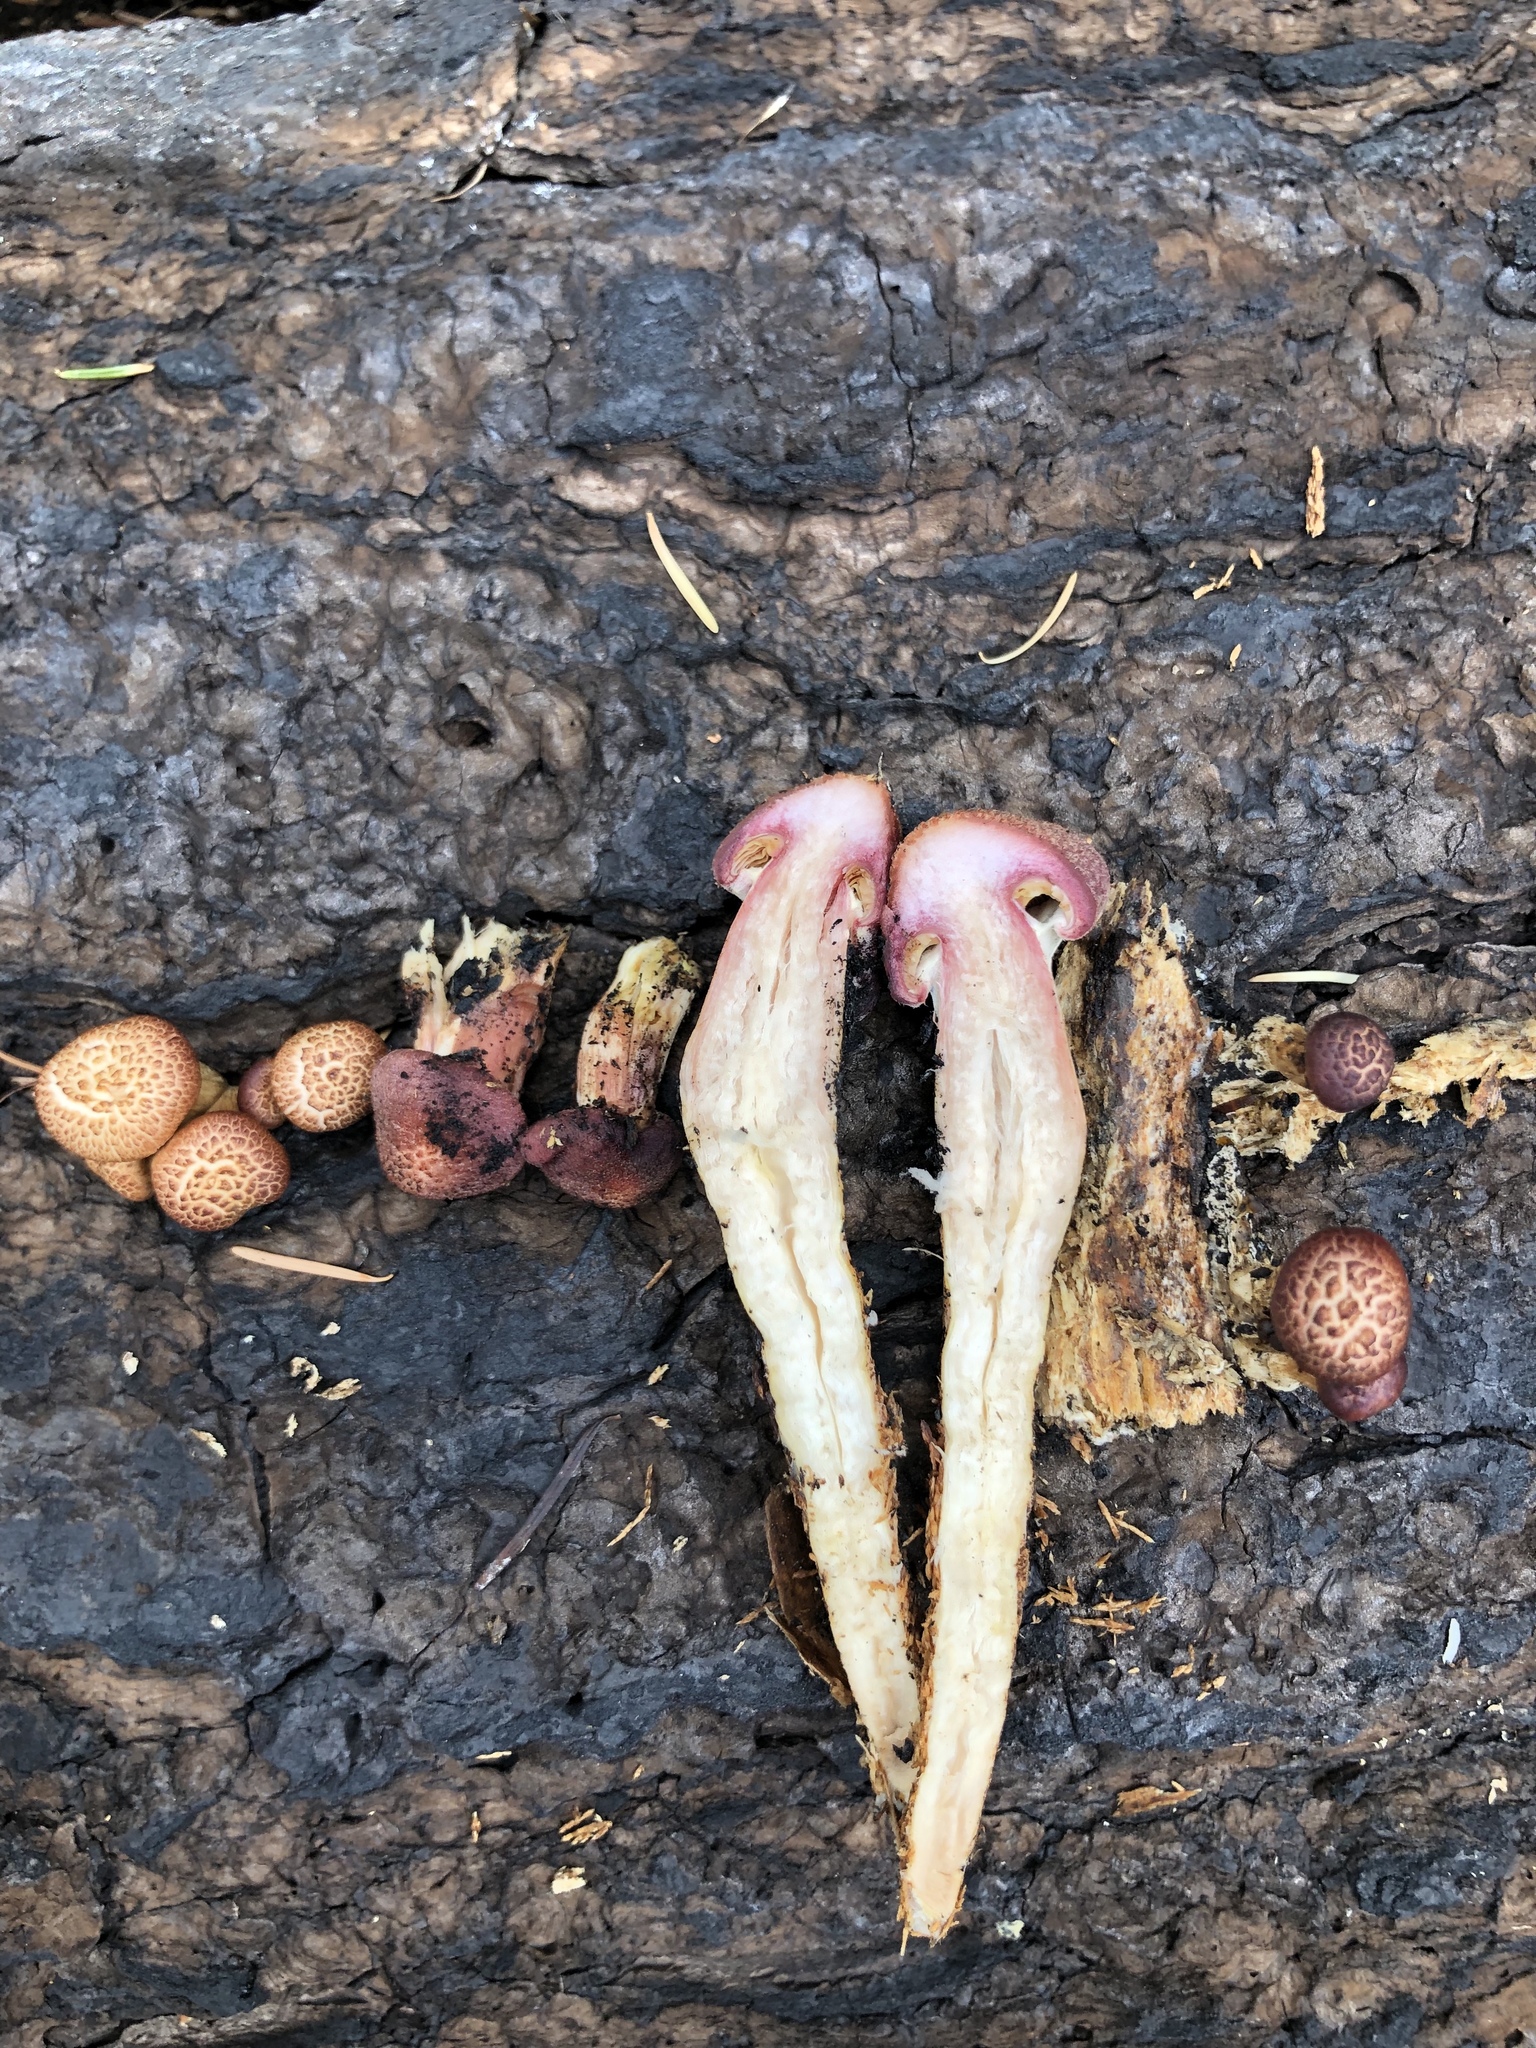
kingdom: Fungi
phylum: Basidiomycota
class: Agaricomycetes
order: Agaricales
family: Hymenogastraceae
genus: Gymnopilus
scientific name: Gymnopilus luteofolius
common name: Yellow-gilled gymnopilus
